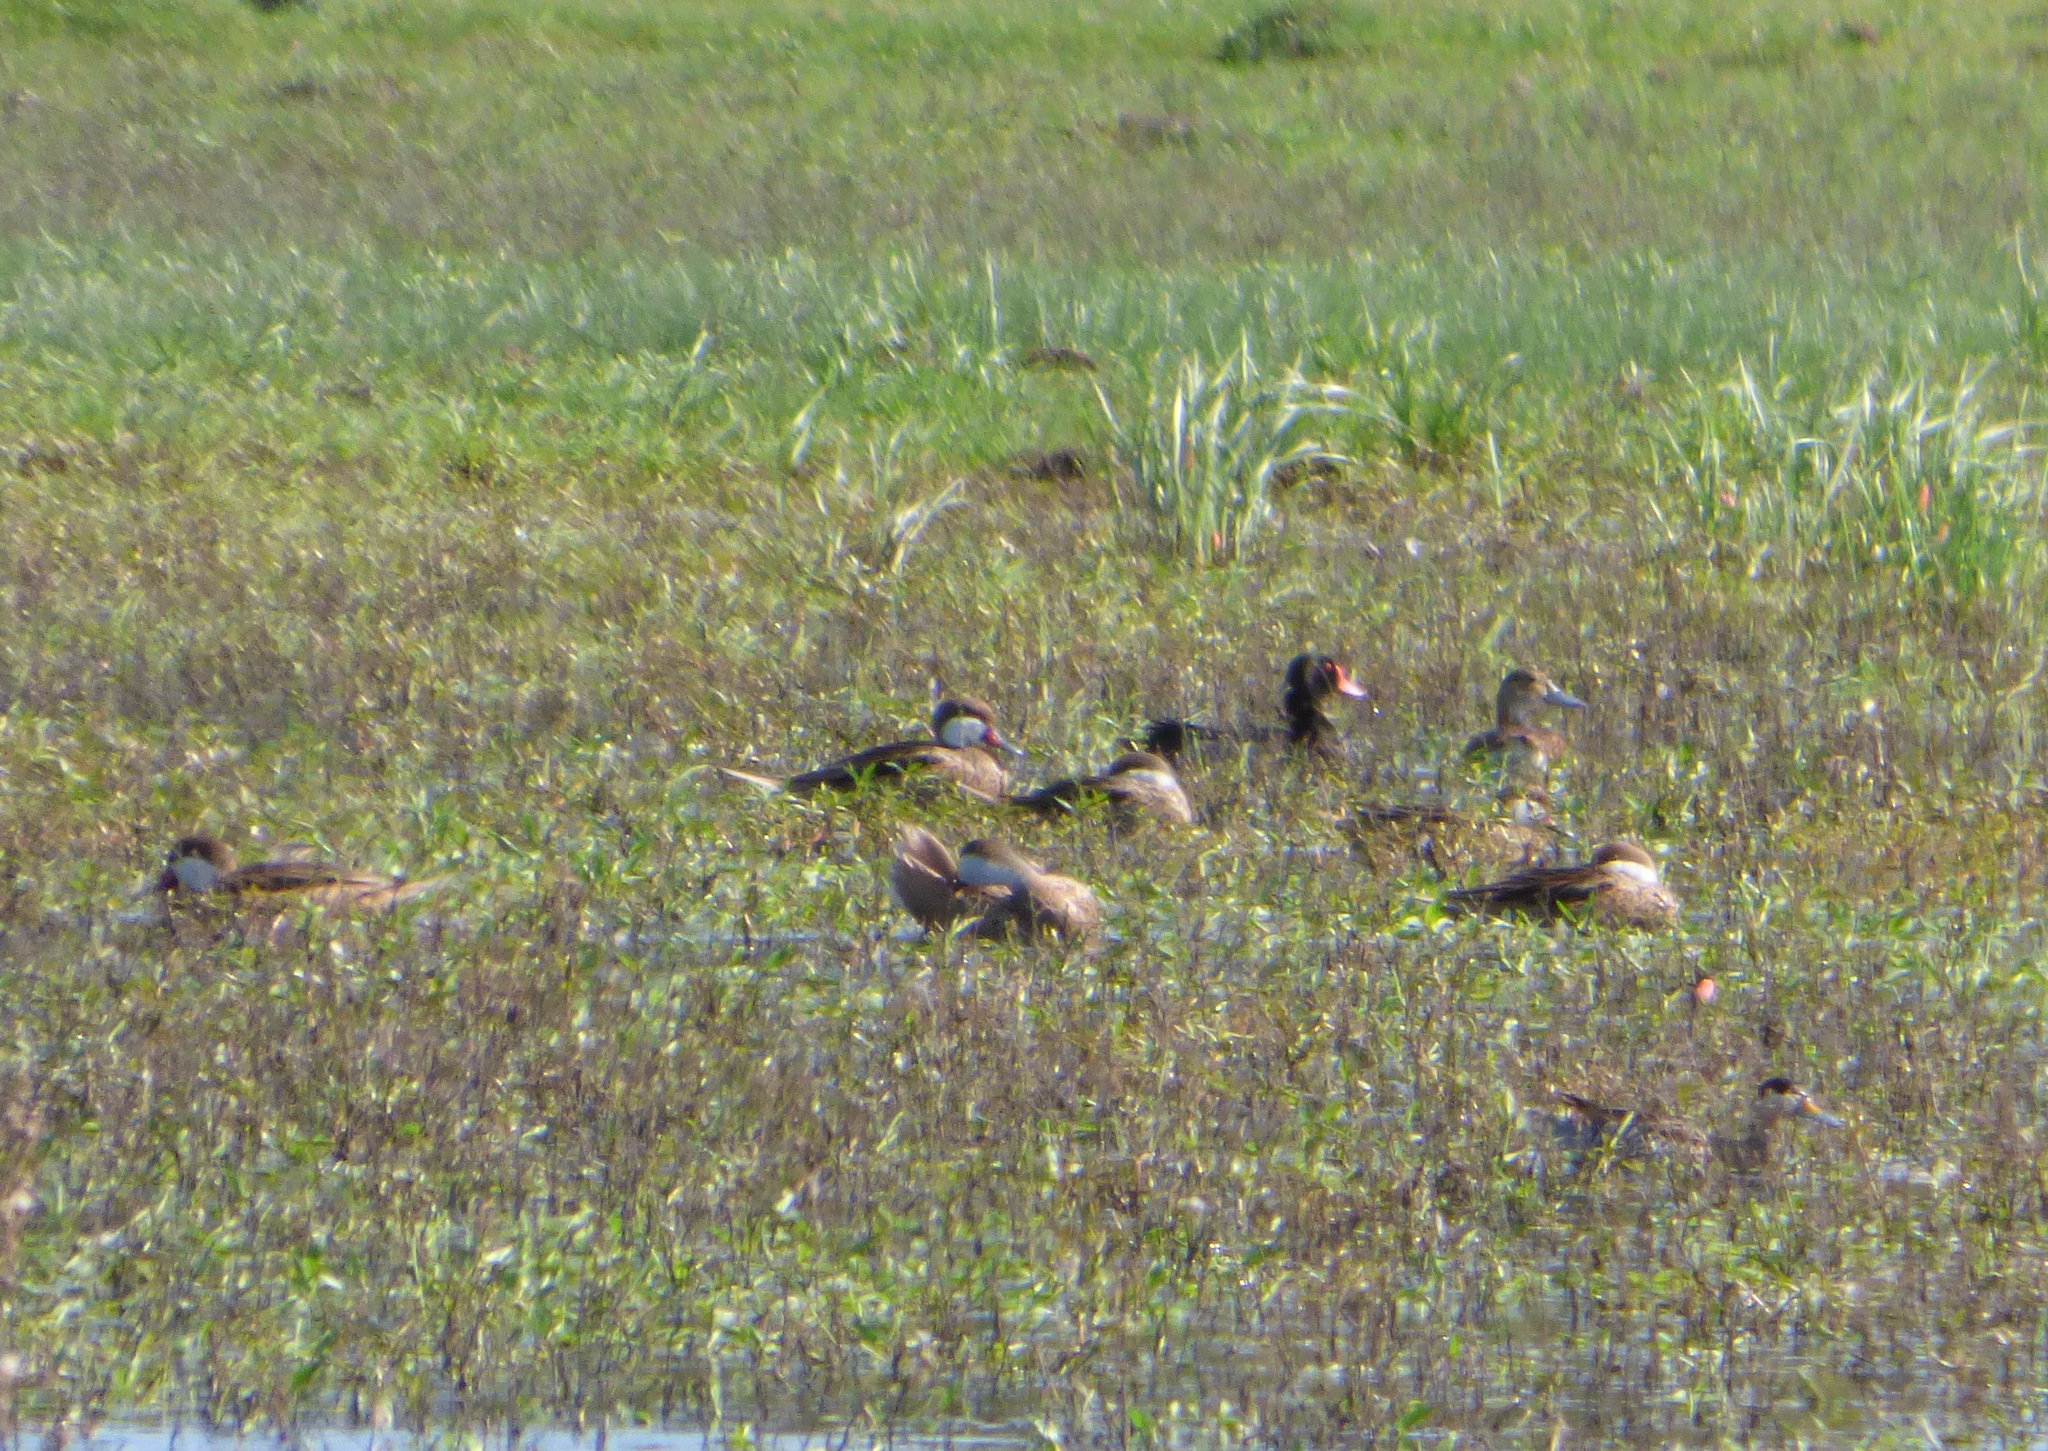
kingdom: Animalia
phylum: Chordata
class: Aves
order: Anseriformes
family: Anatidae
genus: Netta
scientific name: Netta peposaca
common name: Rosy-billed pochard
